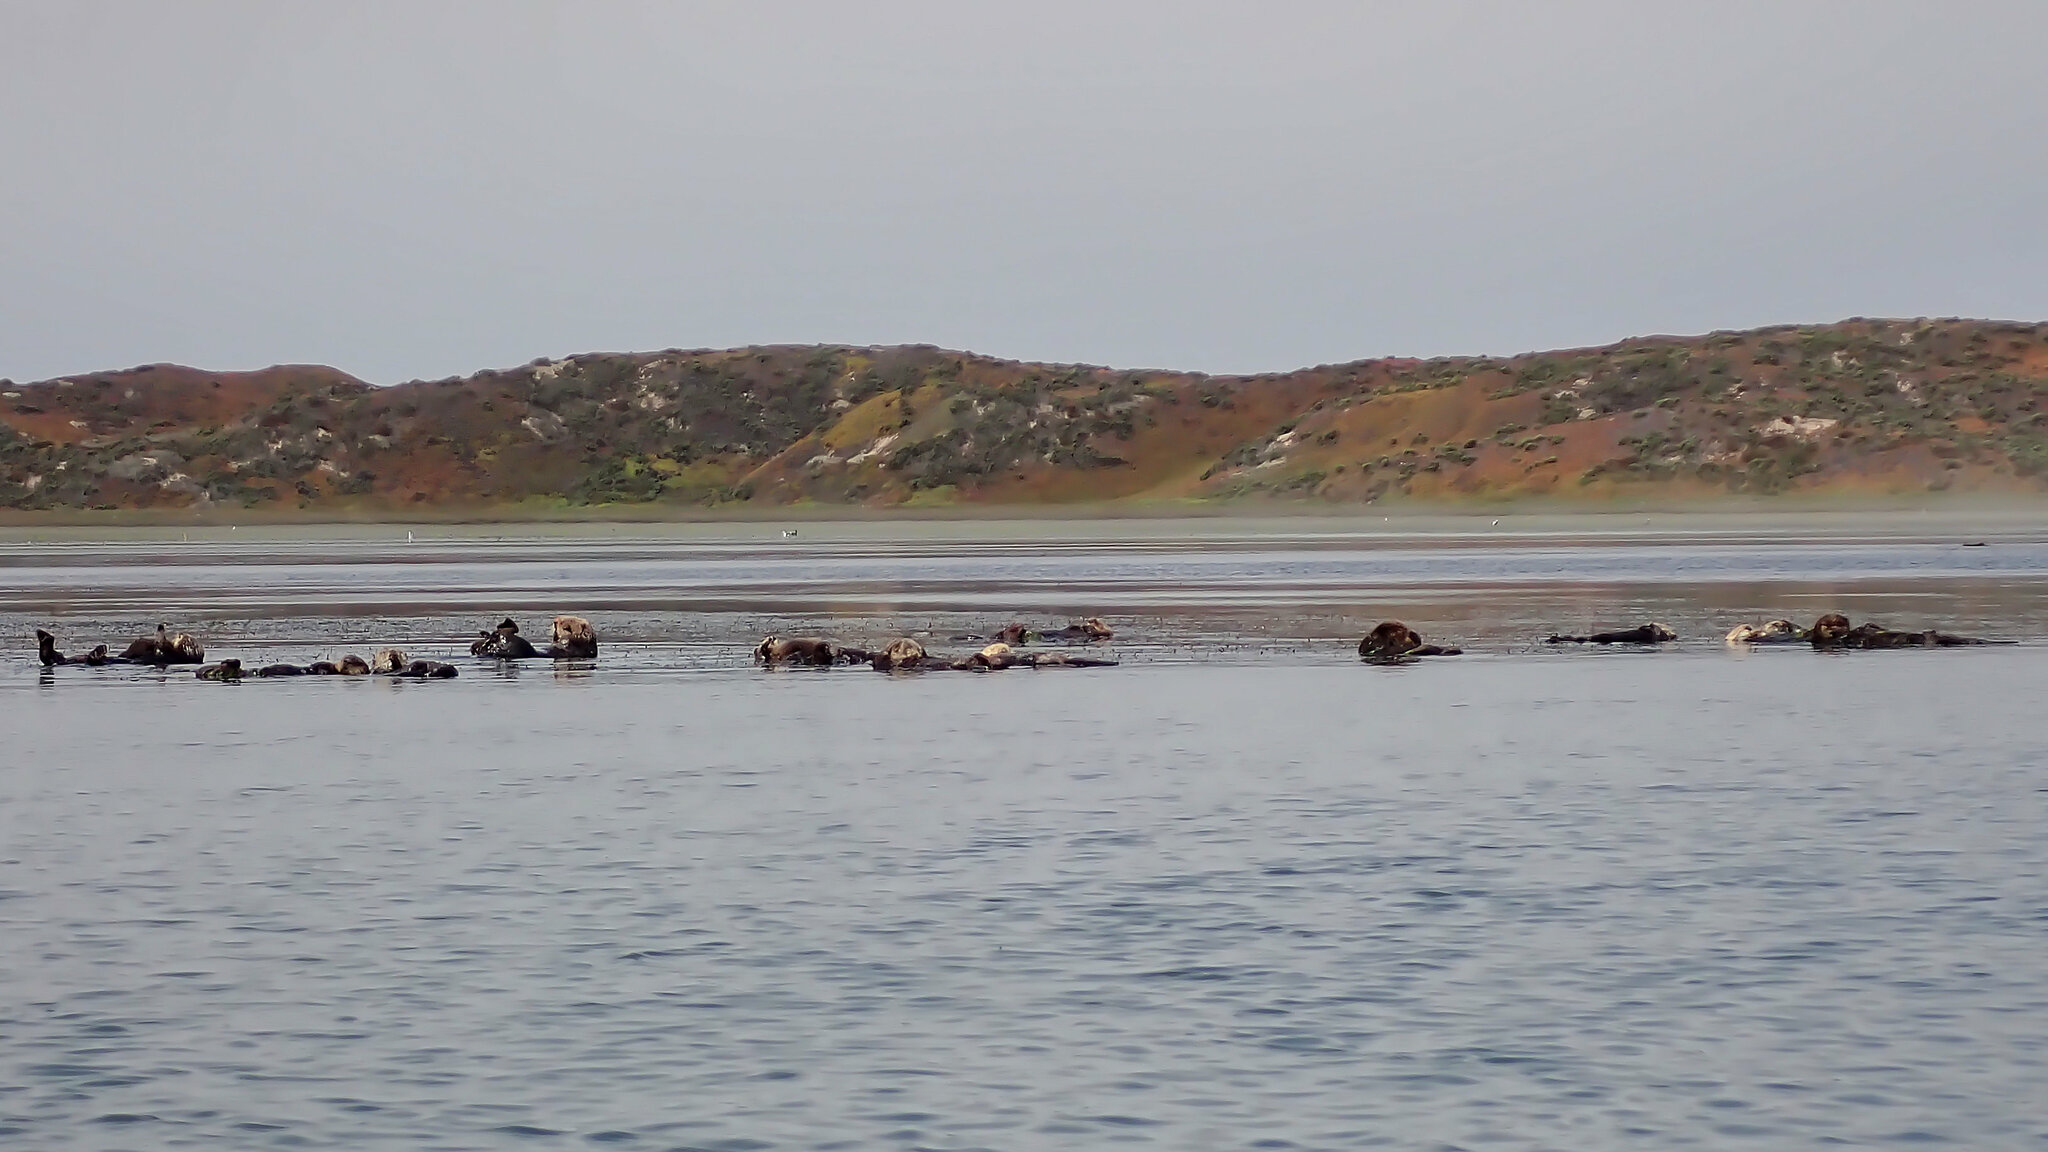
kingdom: Animalia
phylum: Chordata
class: Mammalia
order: Carnivora
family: Mustelidae
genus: Enhydra
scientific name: Enhydra lutris
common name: Sea otter
